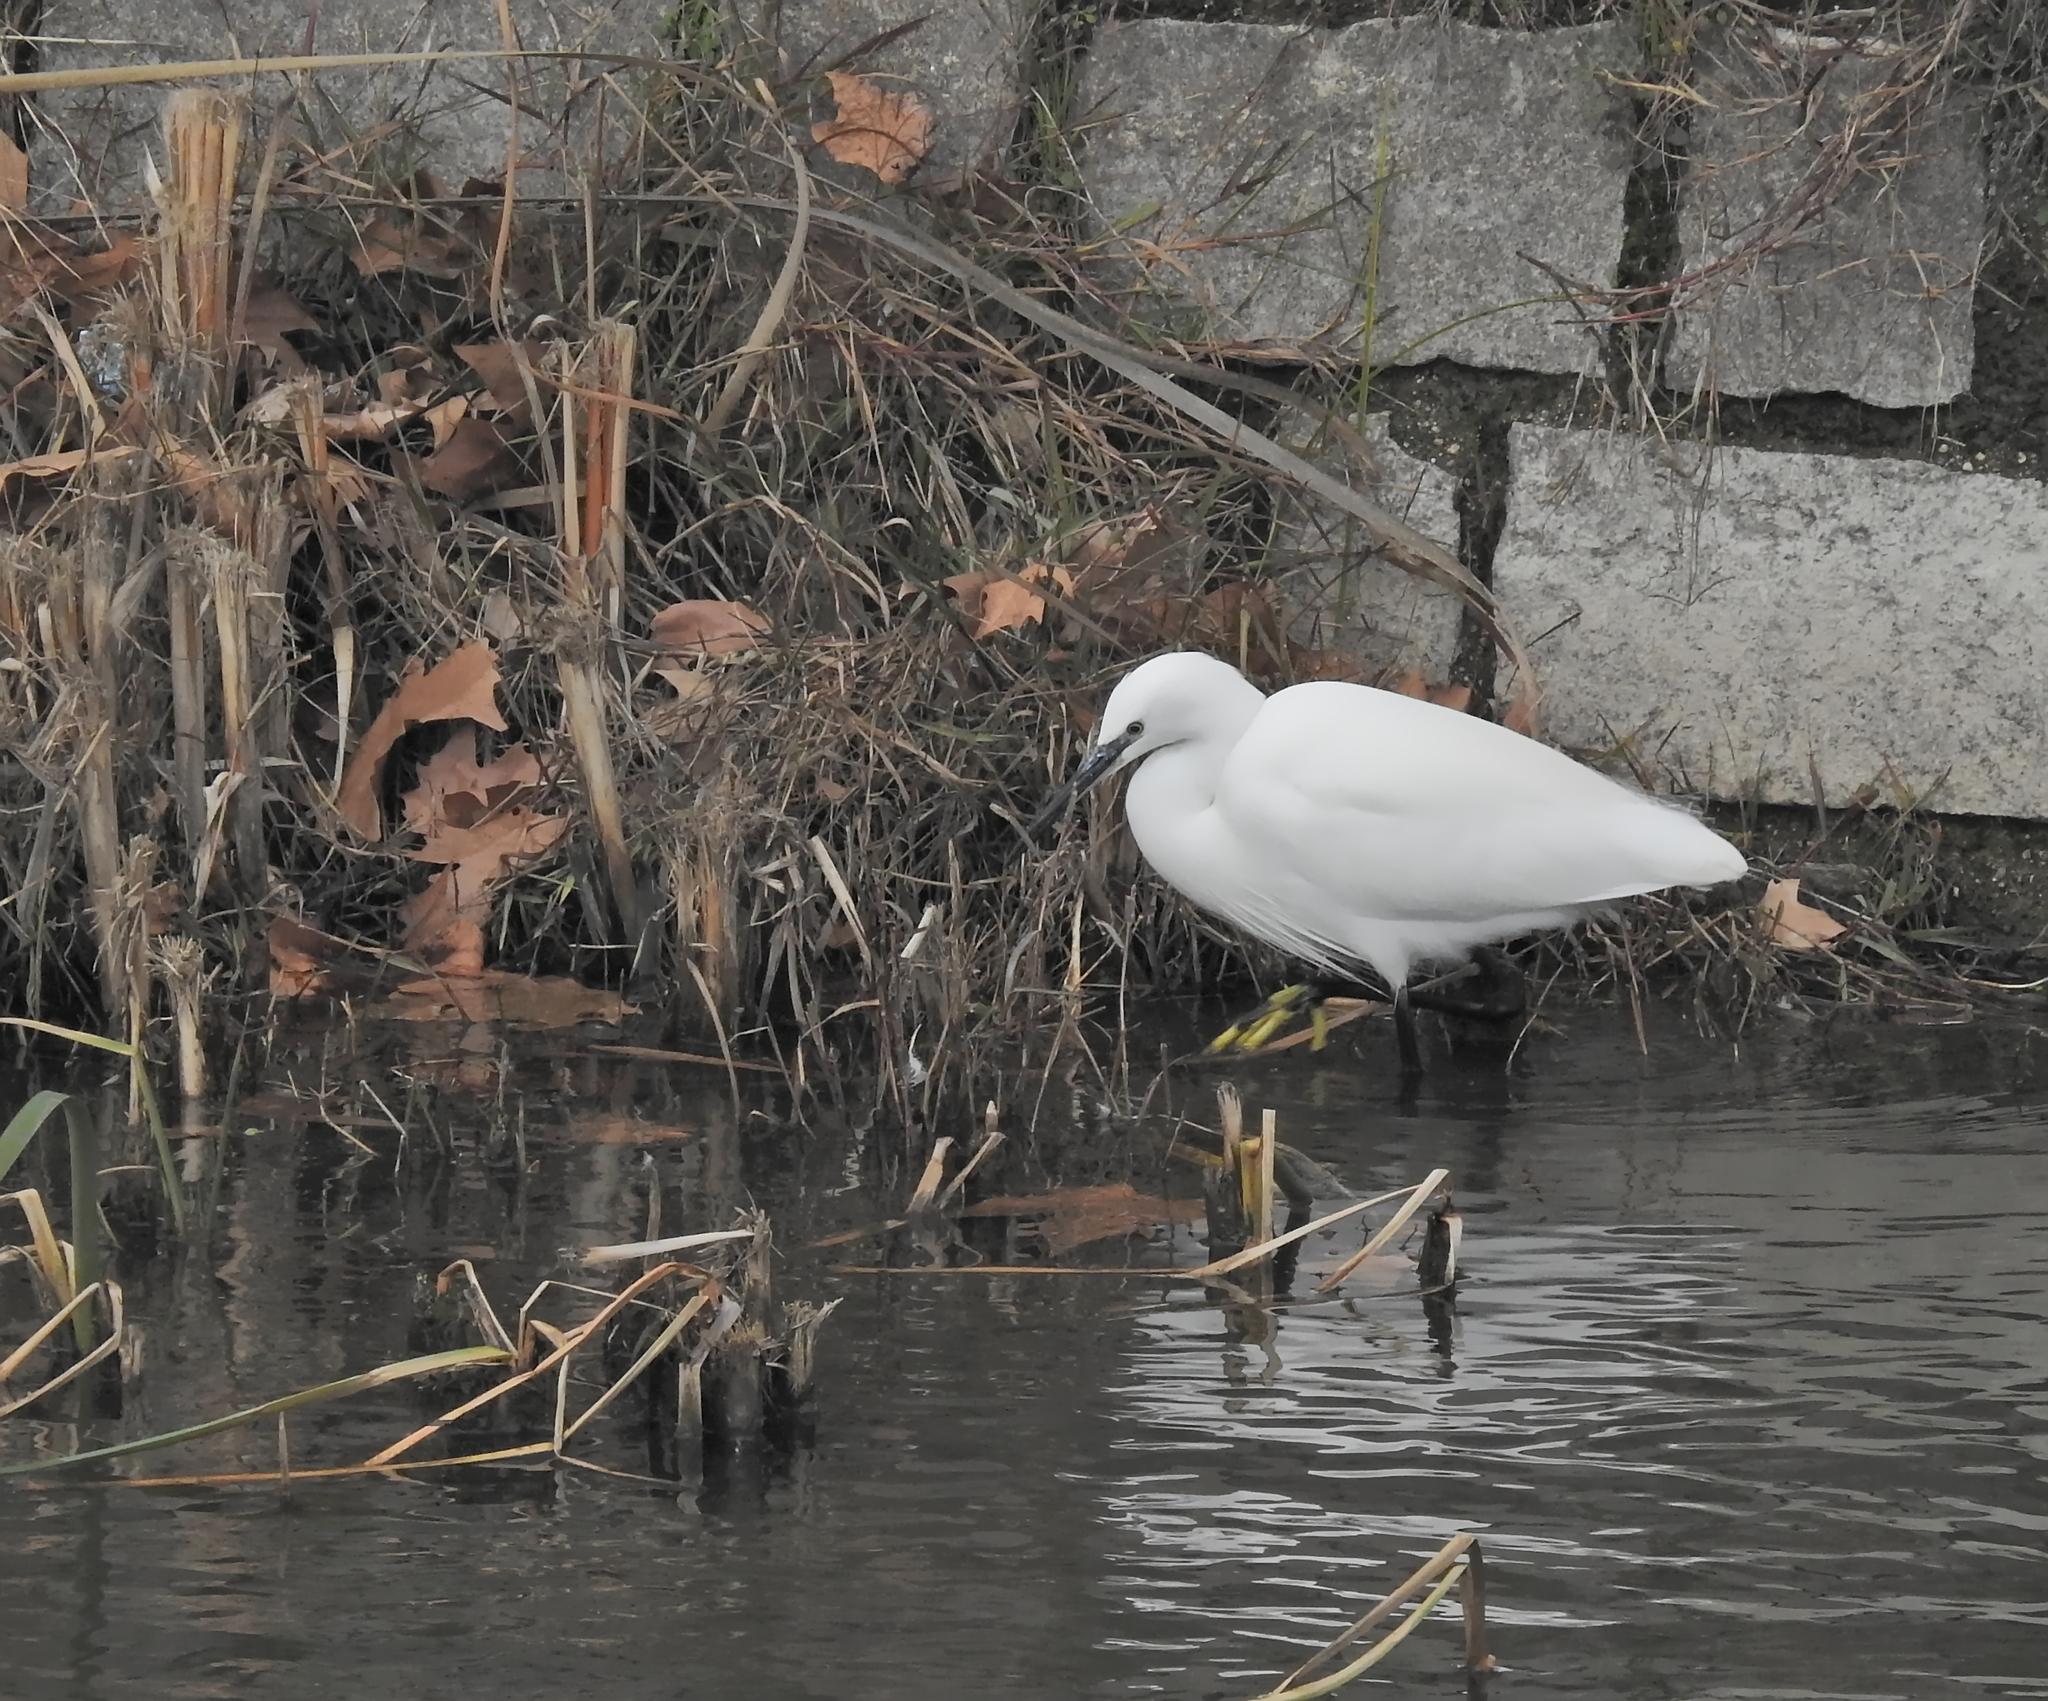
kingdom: Animalia
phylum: Chordata
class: Aves
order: Pelecaniformes
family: Ardeidae
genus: Egretta
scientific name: Egretta garzetta
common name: Little egret
